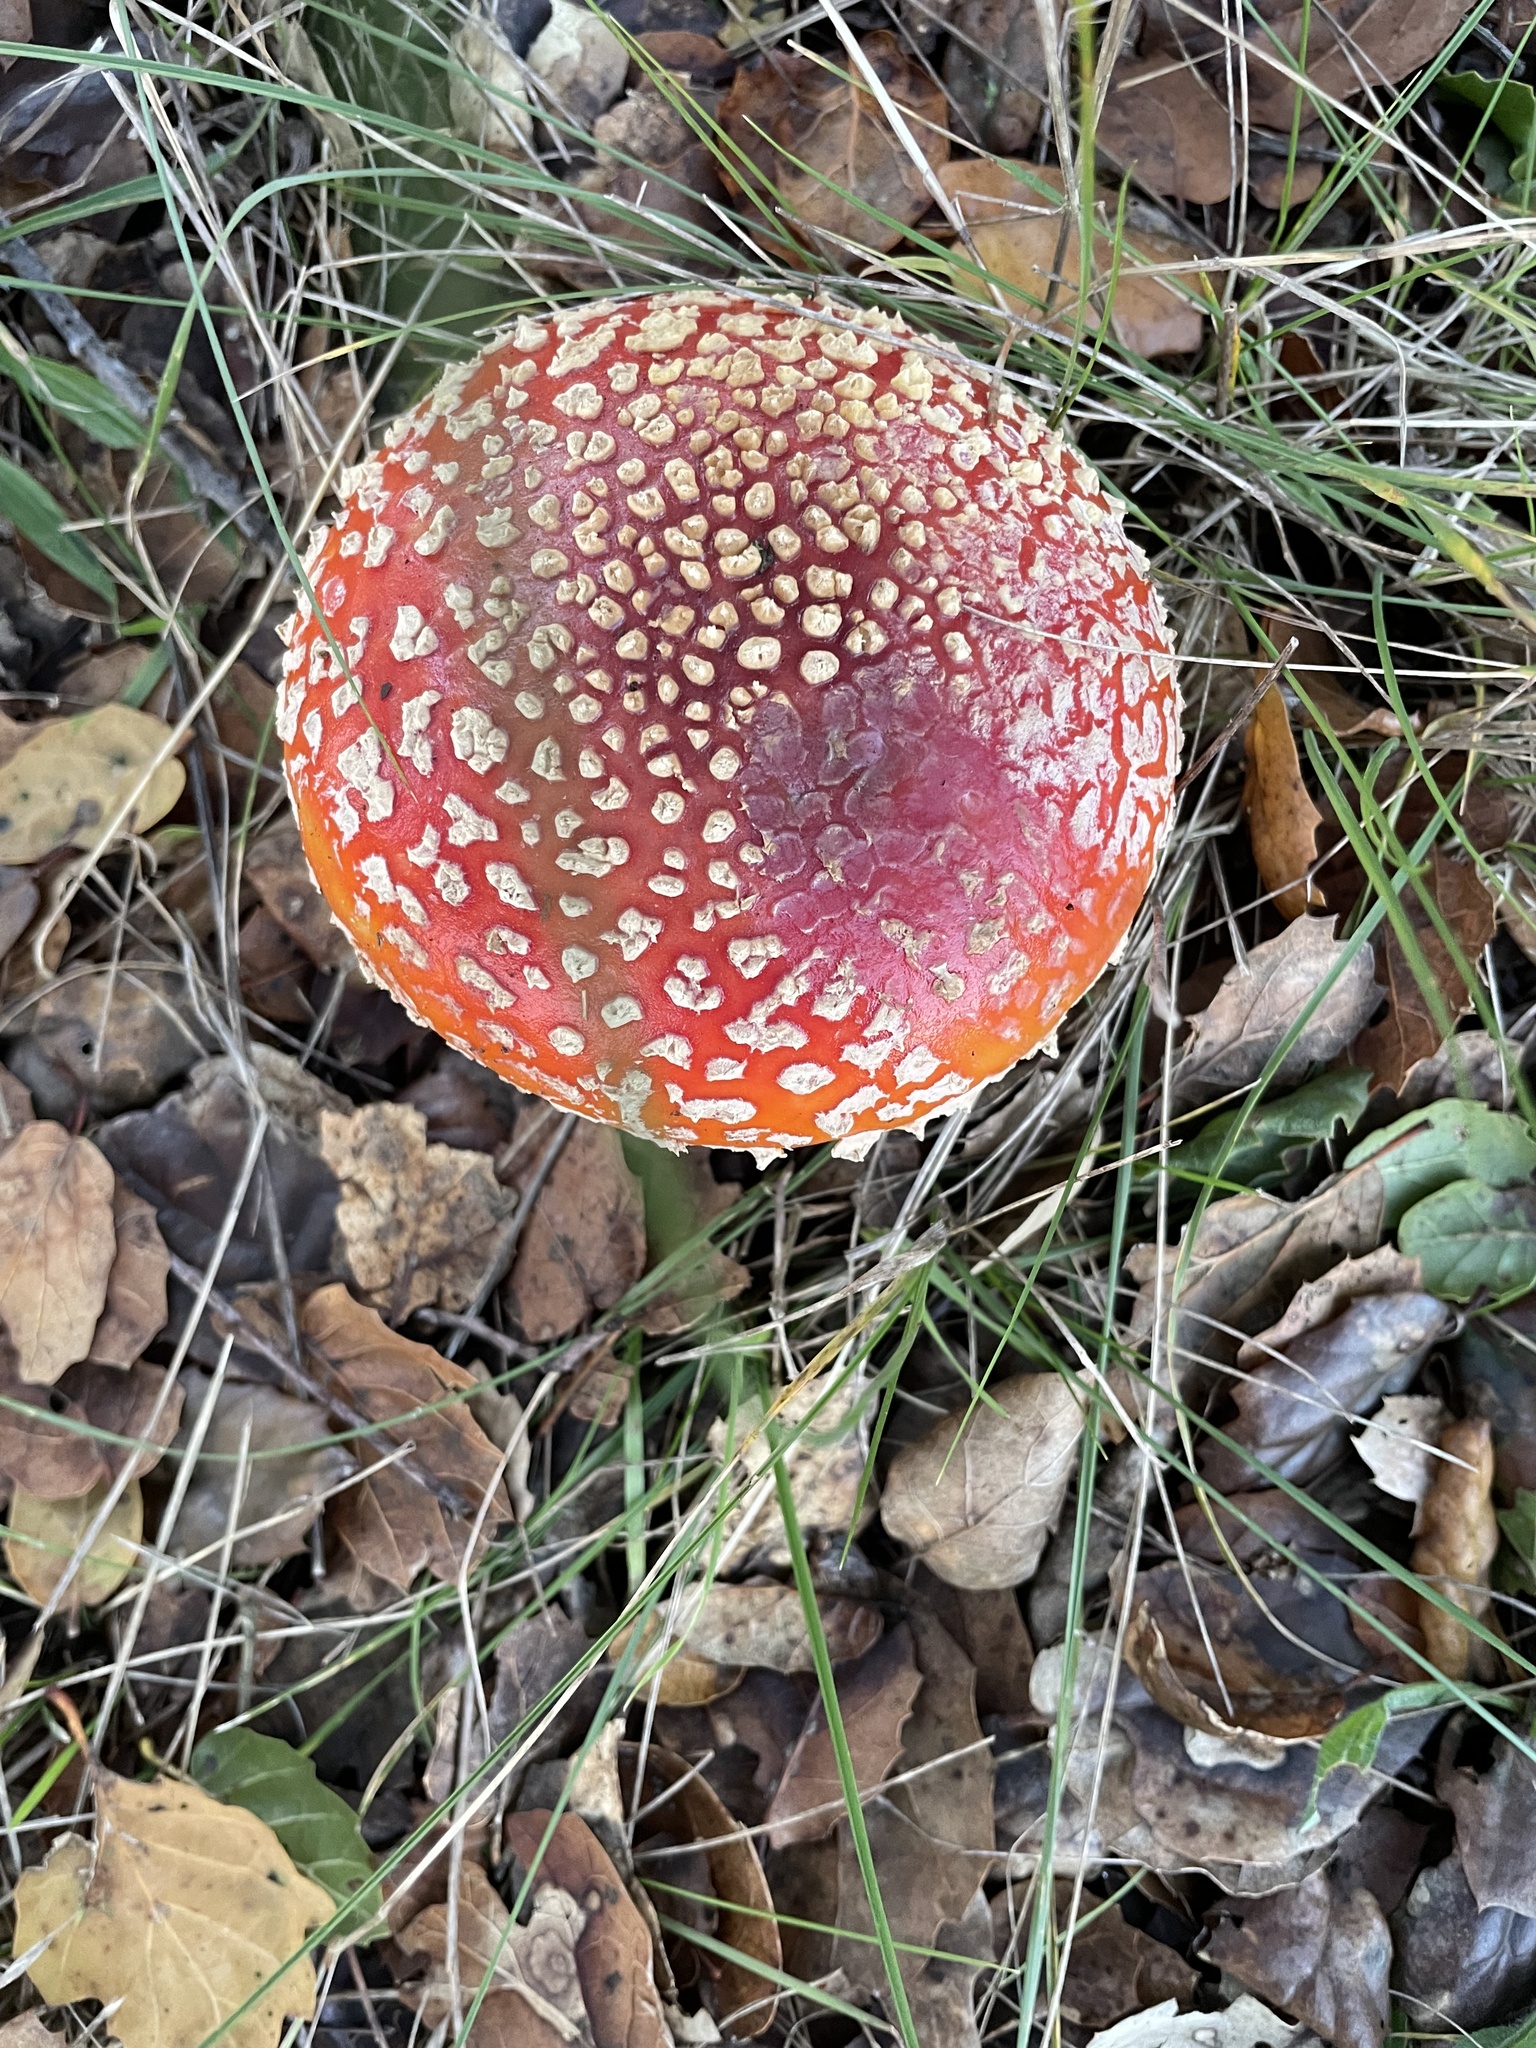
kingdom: Fungi
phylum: Basidiomycota
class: Agaricomycetes
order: Agaricales
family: Amanitaceae
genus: Amanita
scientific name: Amanita muscaria
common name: Fly agaric
